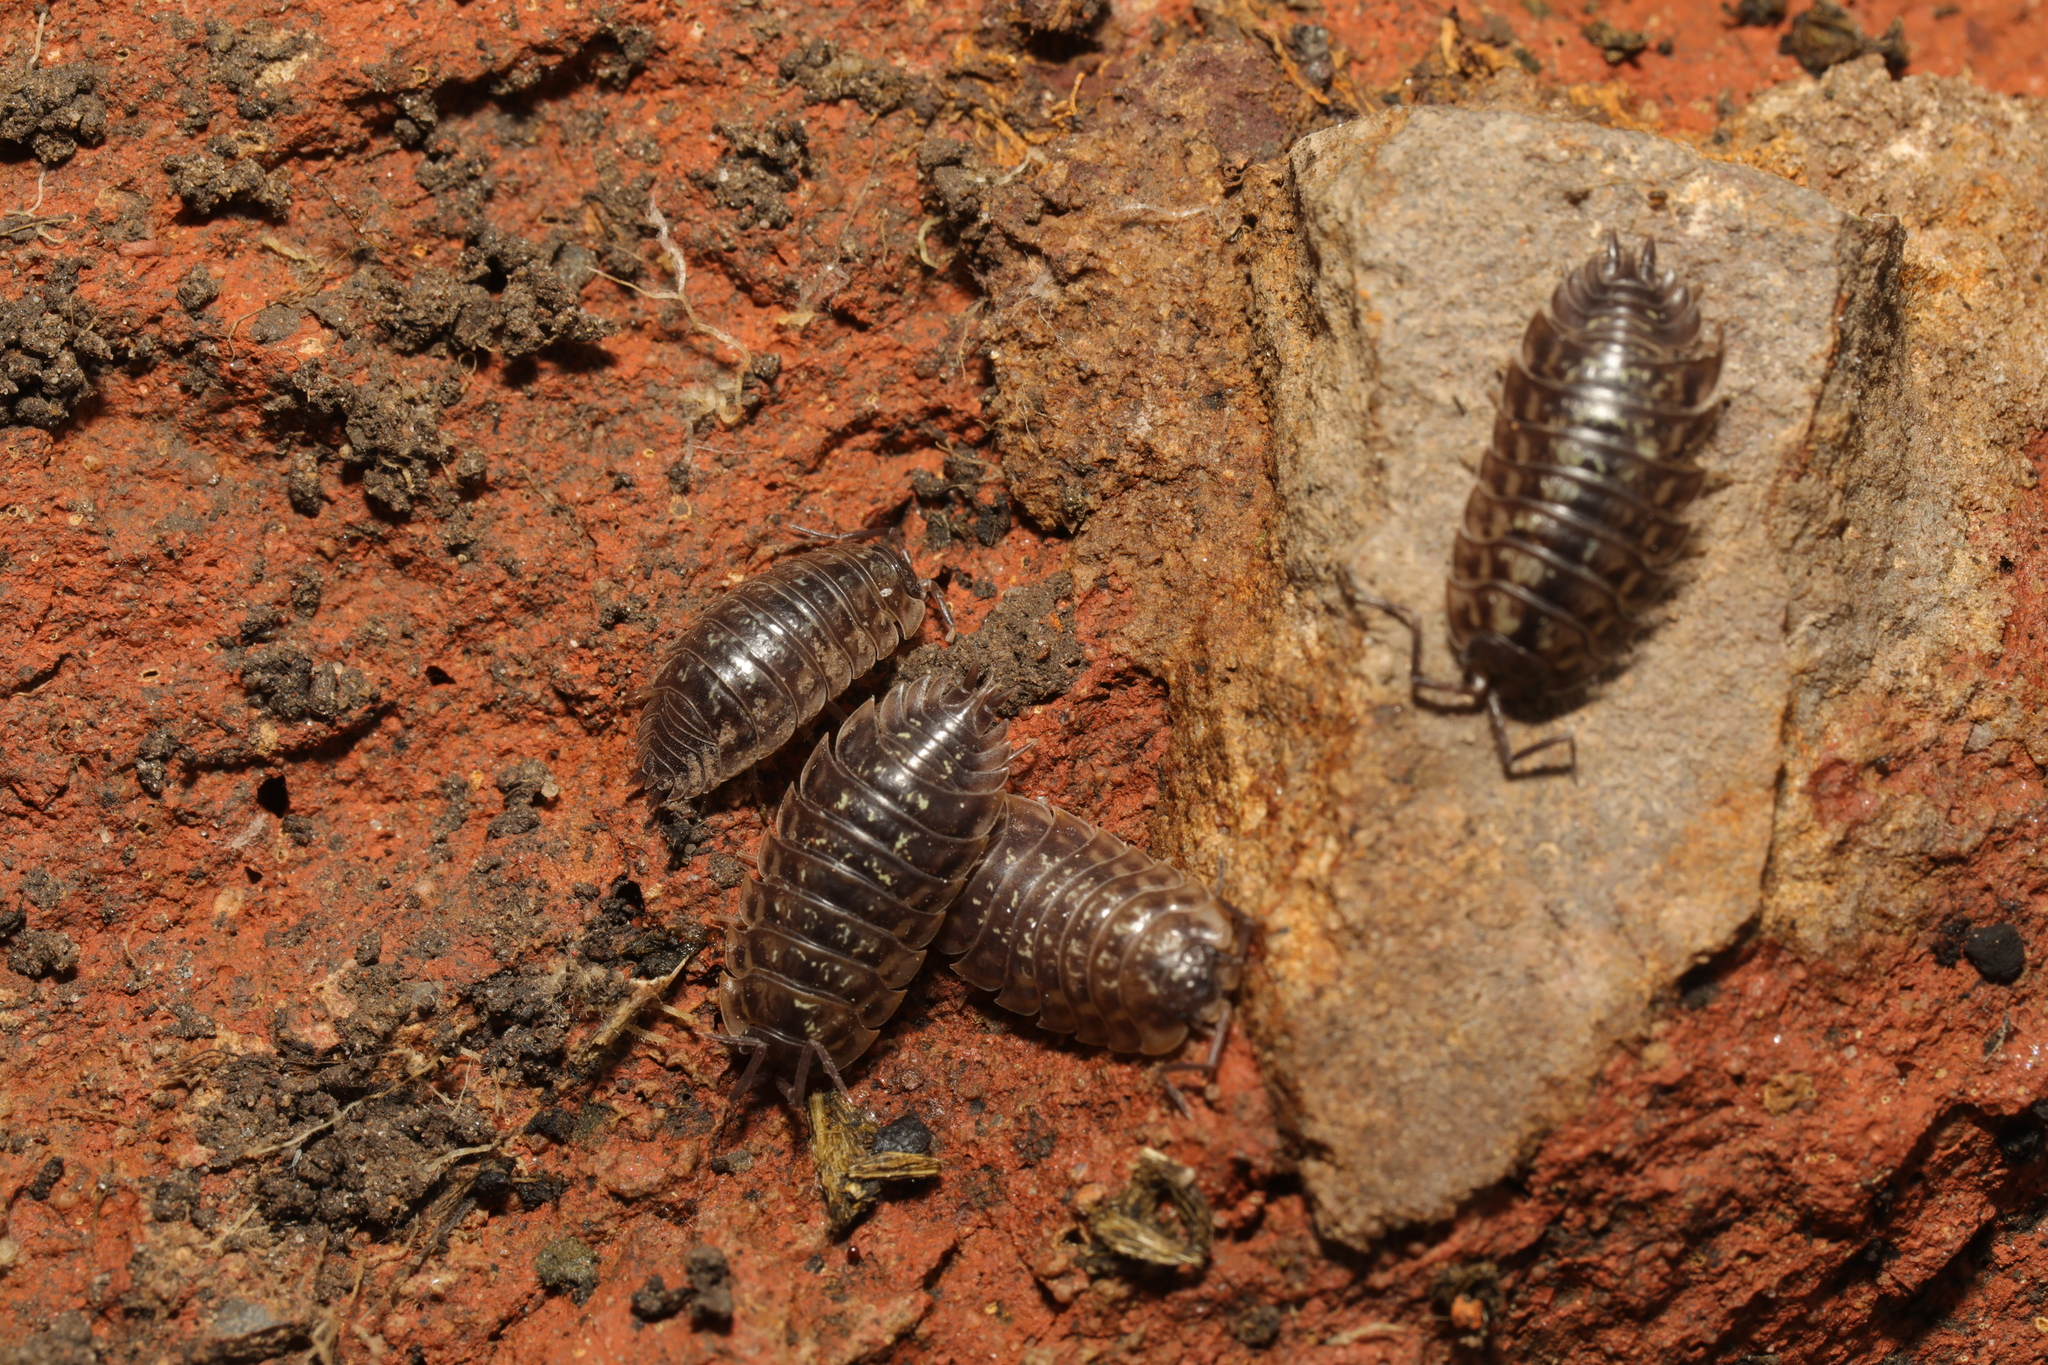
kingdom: Animalia
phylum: Arthropoda
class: Malacostraca
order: Isopoda
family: Oniscidae
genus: Oniscus
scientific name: Oniscus asellus
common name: Common shiny woodlouse
